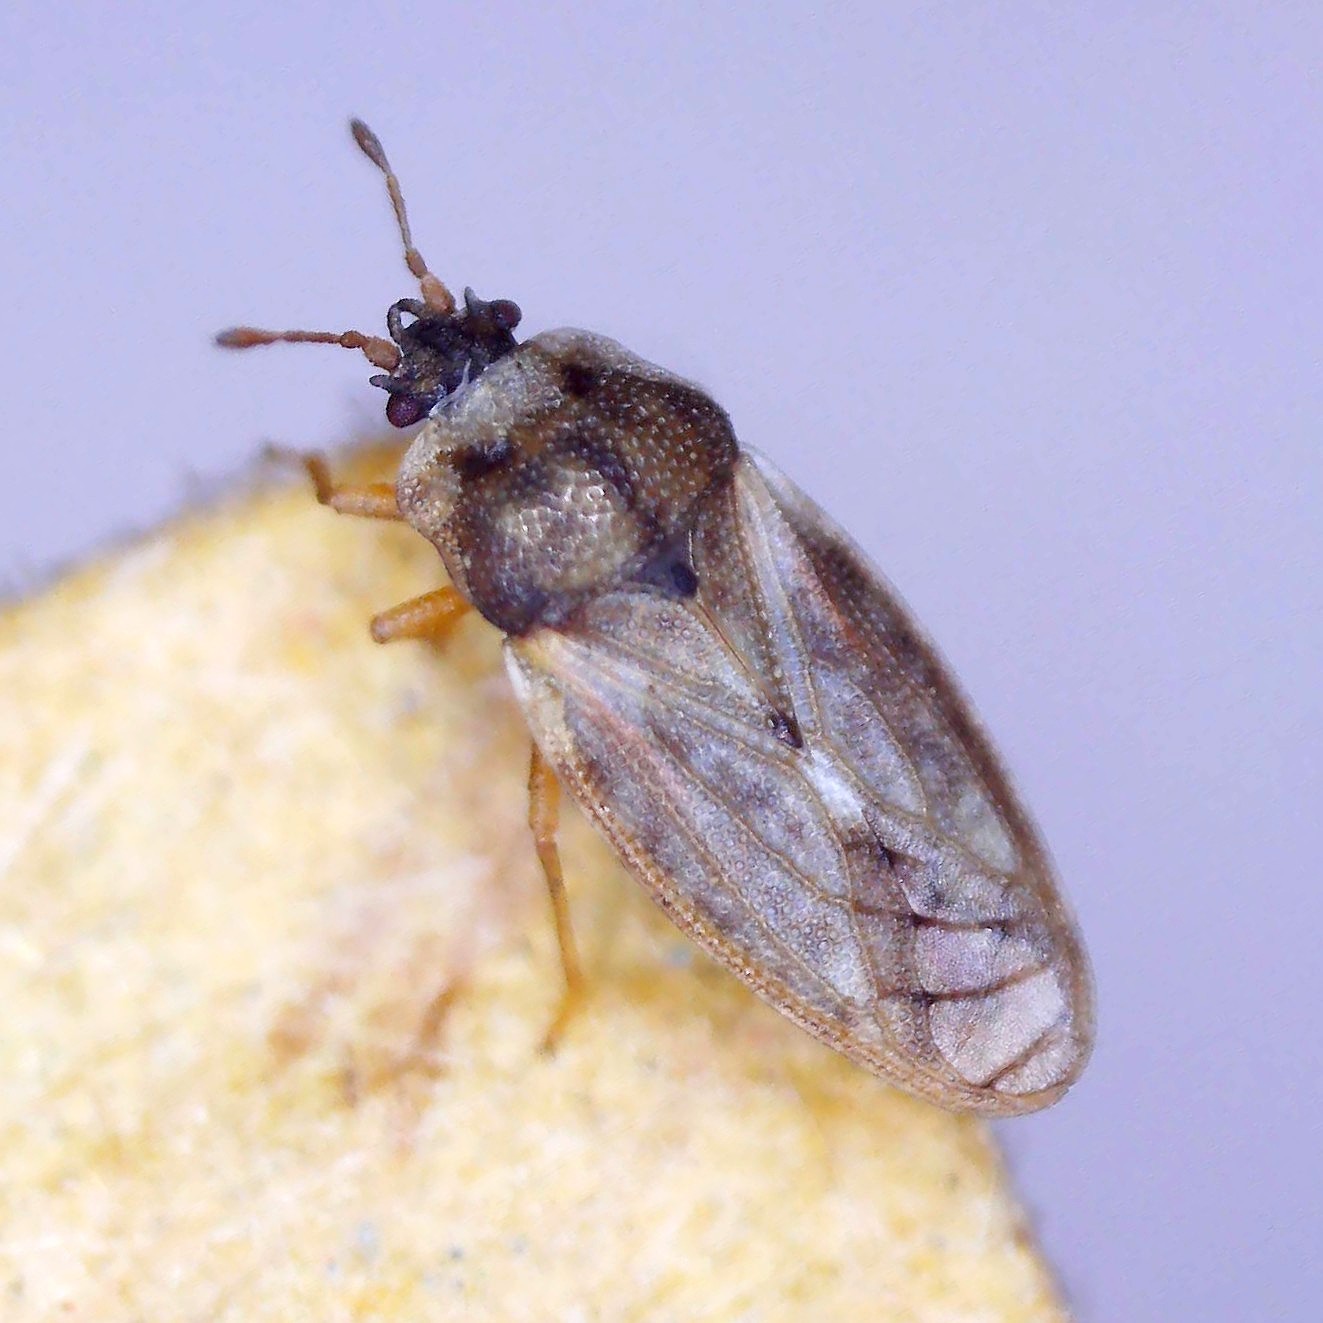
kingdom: Animalia
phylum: Arthropoda
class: Insecta
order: Hemiptera
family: Piesmatidae
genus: Piesma
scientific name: Piesma maculata
